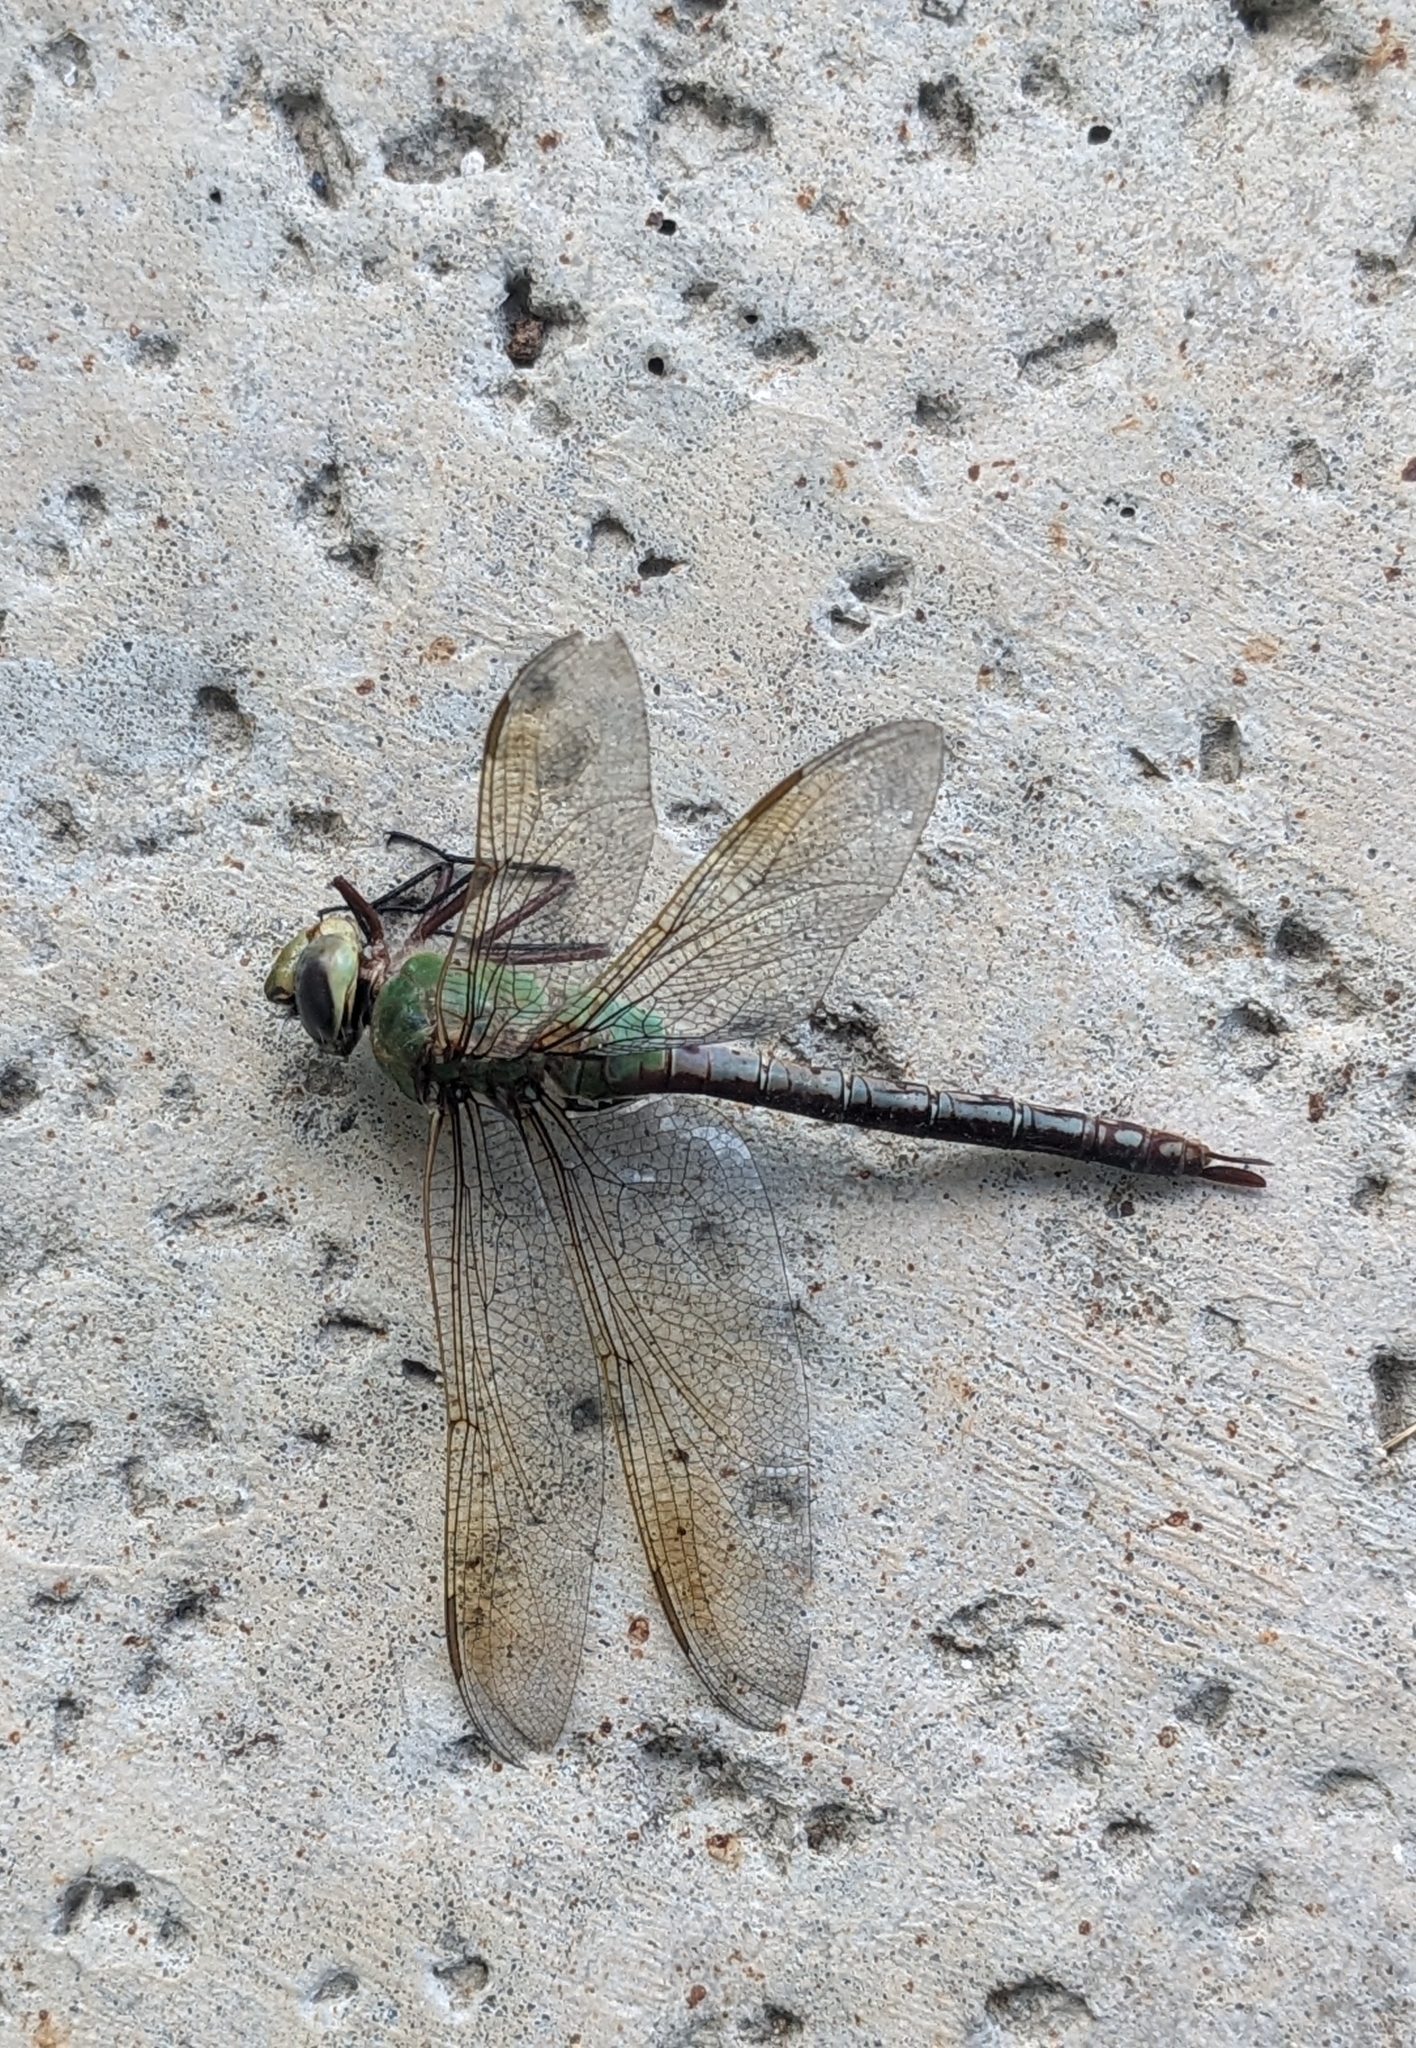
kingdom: Animalia
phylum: Arthropoda
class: Insecta
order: Odonata
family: Aeshnidae
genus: Anax
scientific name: Anax junius
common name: Common green darner
